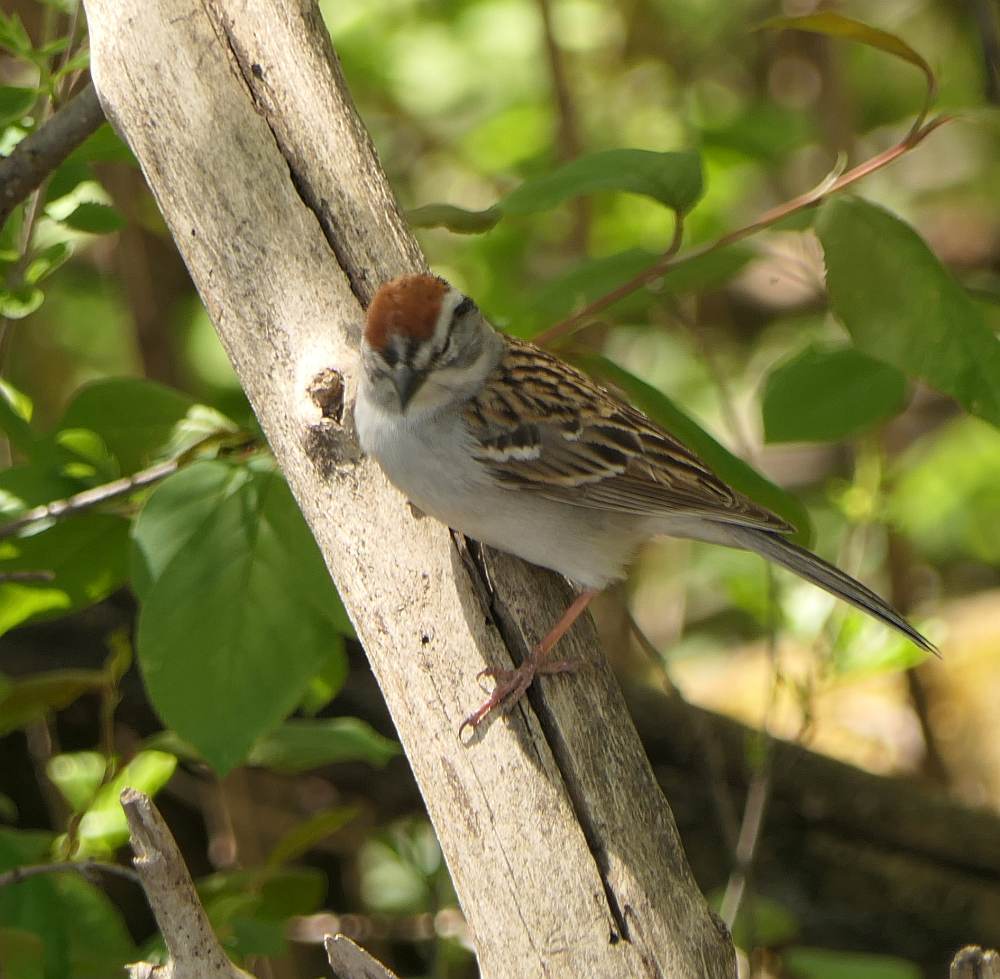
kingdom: Animalia
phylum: Chordata
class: Aves
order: Passeriformes
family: Passerellidae
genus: Spizella
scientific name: Spizella passerina
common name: Chipping sparrow
